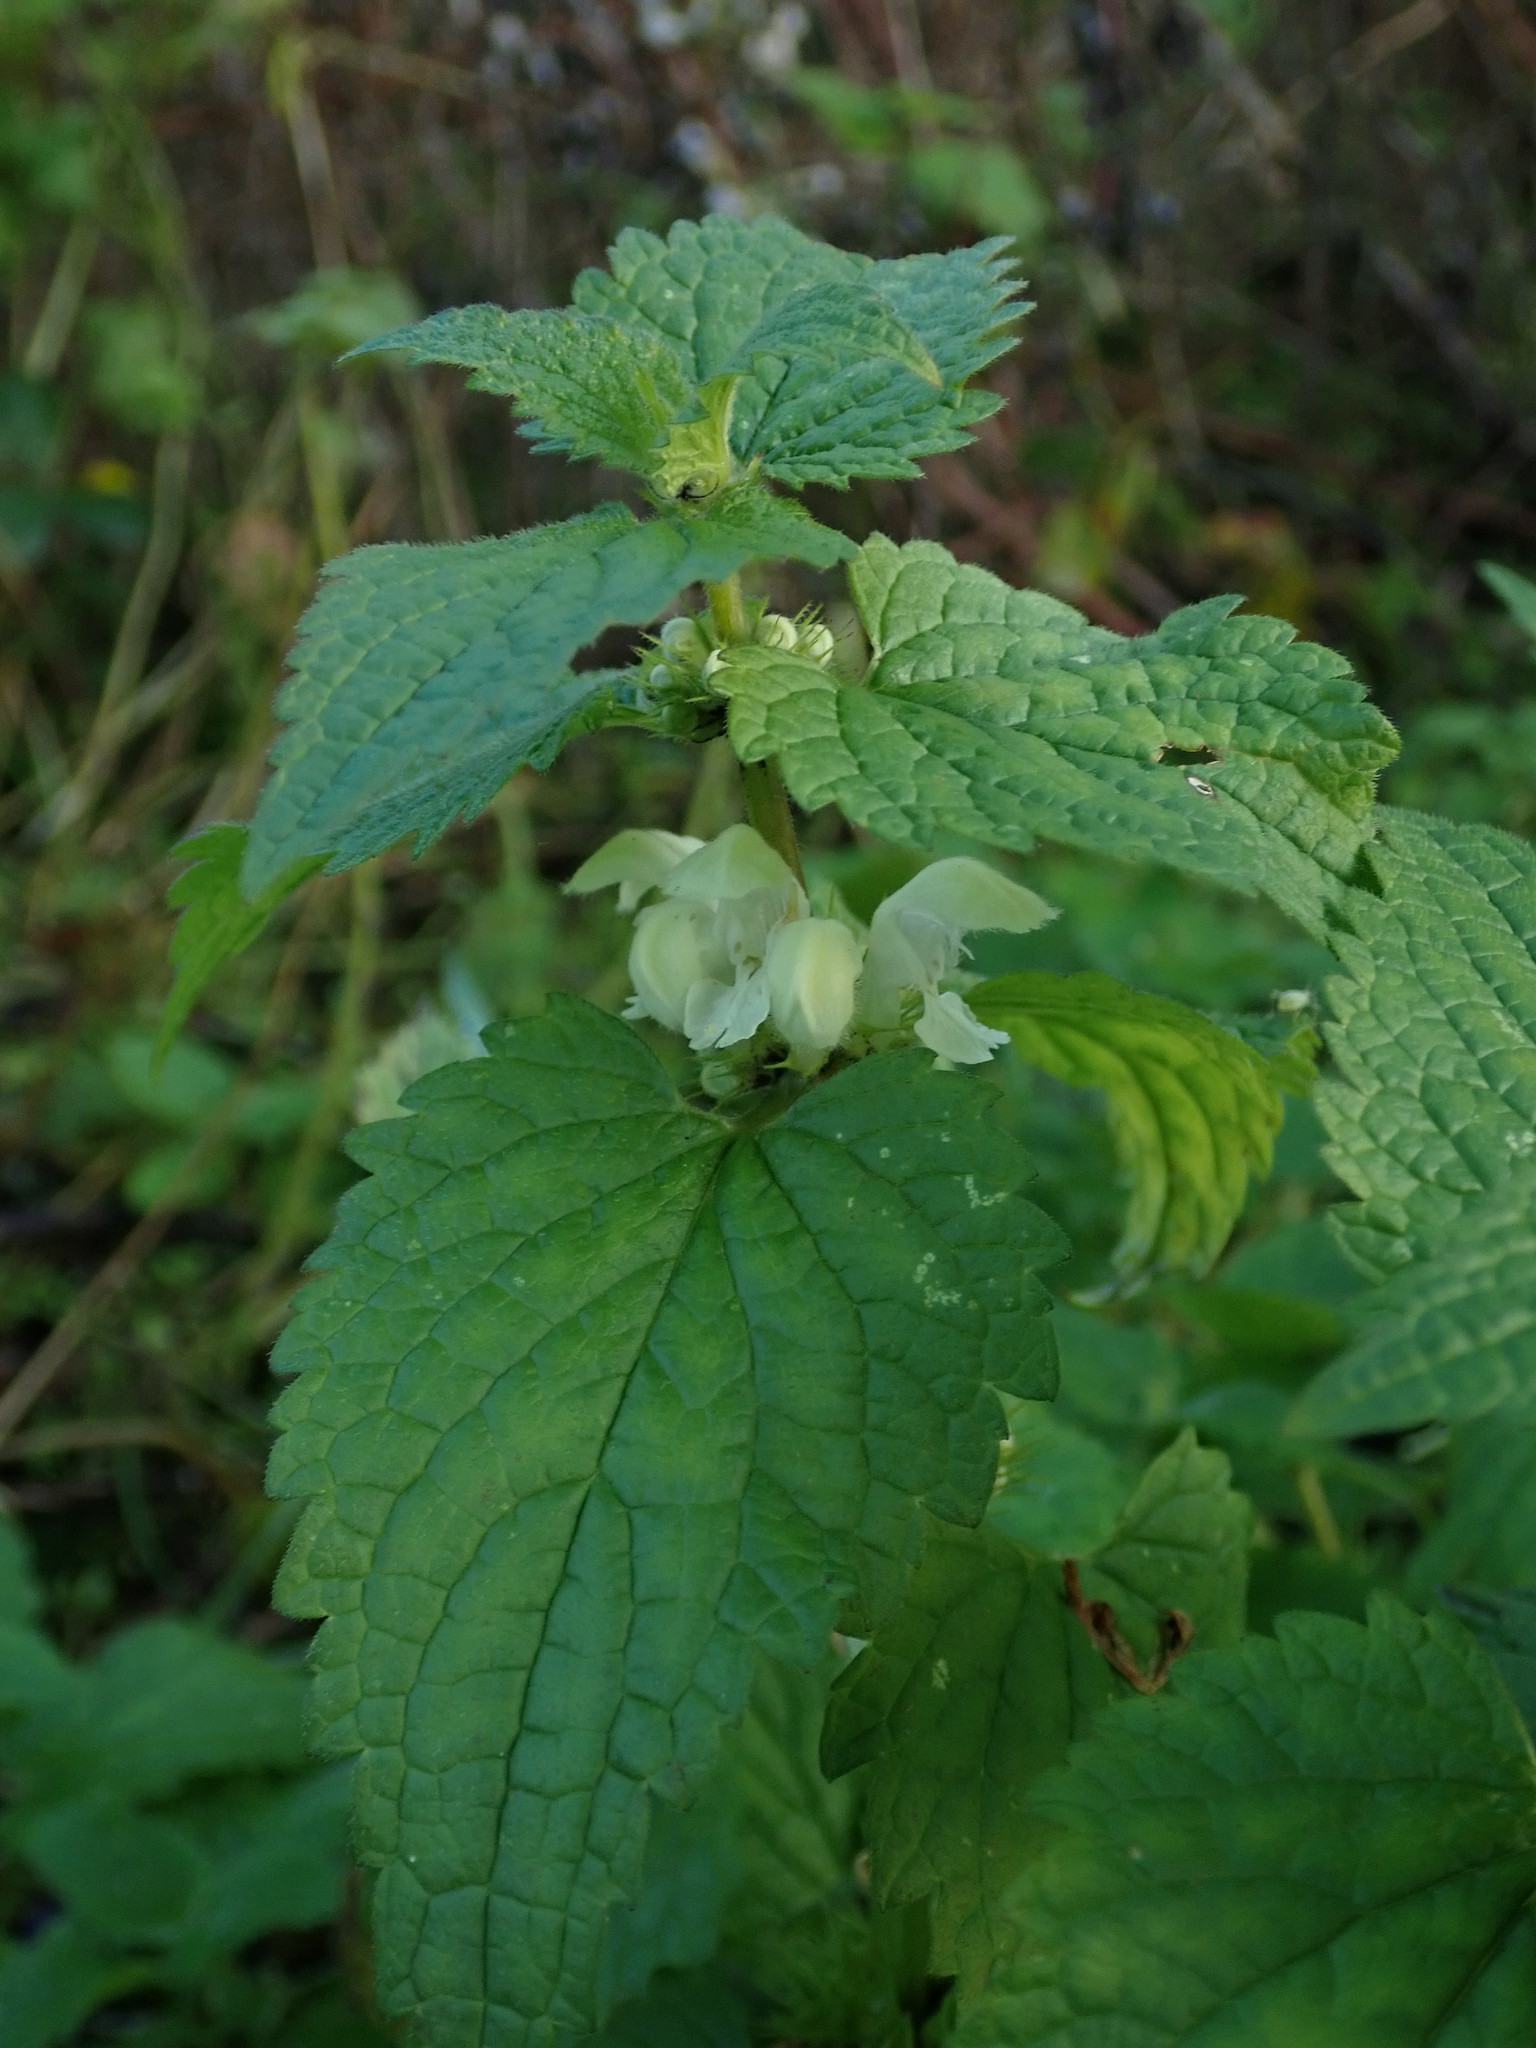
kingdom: Plantae
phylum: Tracheophyta
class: Magnoliopsida
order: Lamiales
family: Lamiaceae
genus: Lamium
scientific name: Lamium album
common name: White dead-nettle
